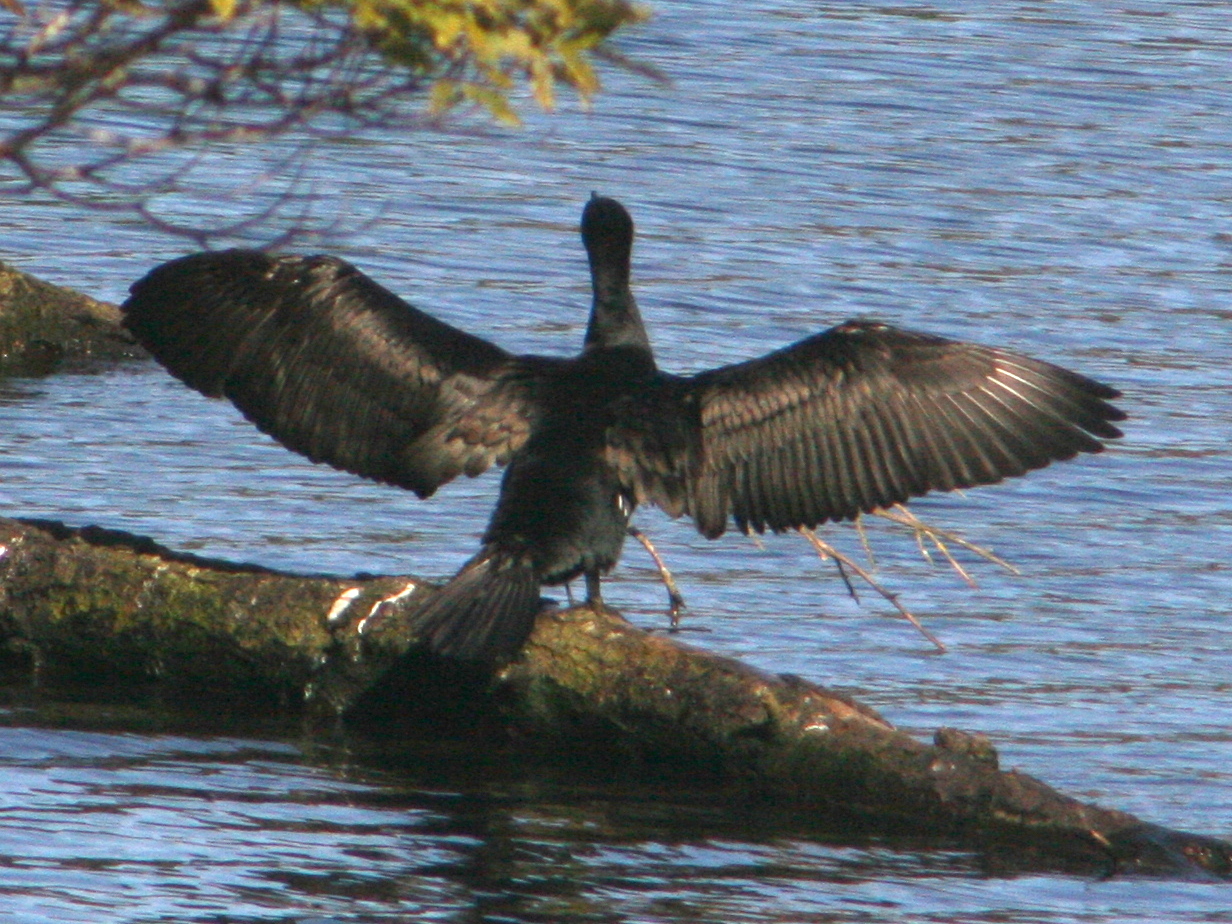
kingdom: Animalia
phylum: Chordata
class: Aves
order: Suliformes
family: Phalacrocoracidae
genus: Phalacrocorax
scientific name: Phalacrocorax carbo
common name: Great cormorant
